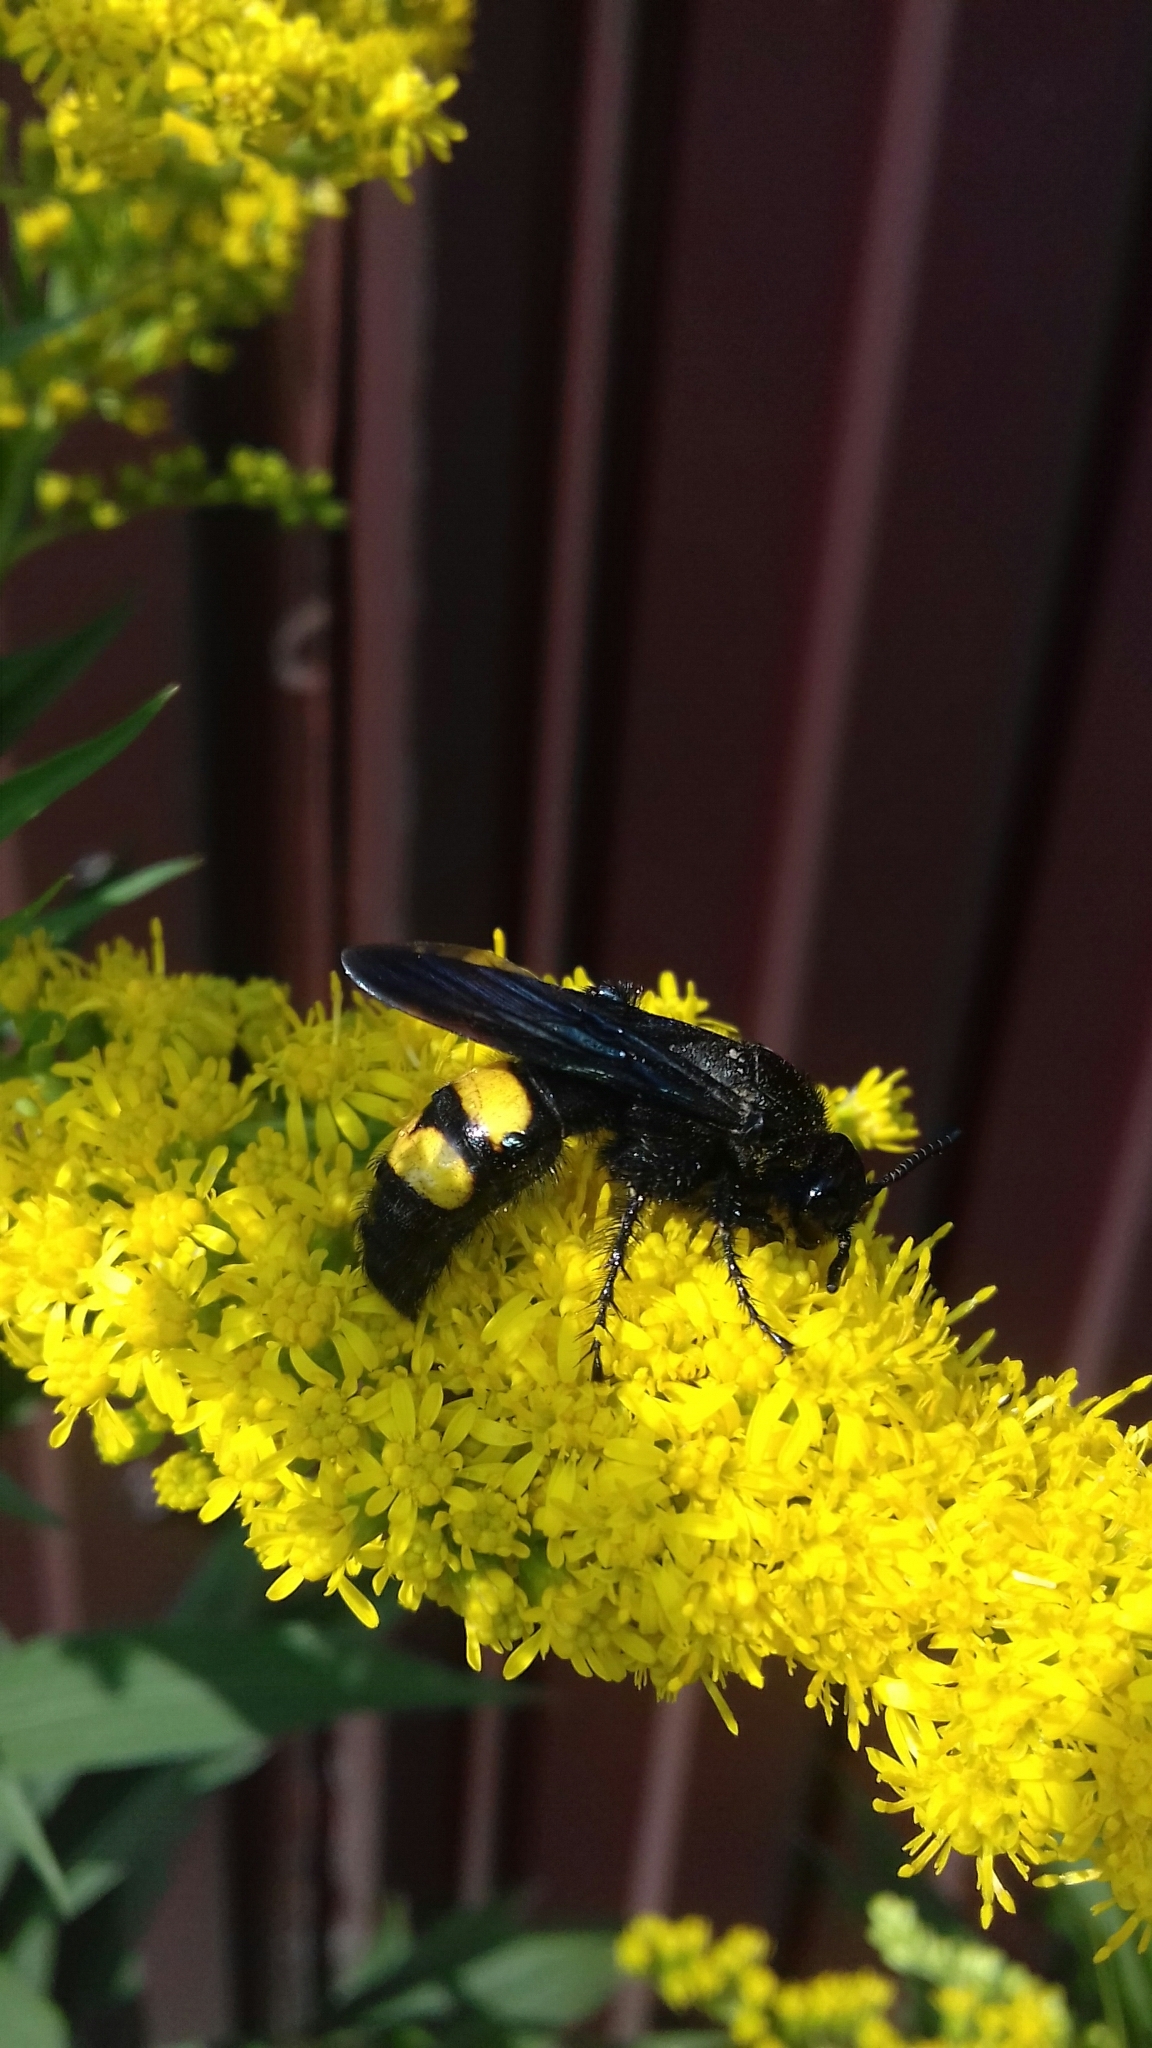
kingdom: Animalia
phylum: Arthropoda
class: Insecta
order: Hymenoptera
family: Scoliidae
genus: Scolia
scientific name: Scolia hirta
